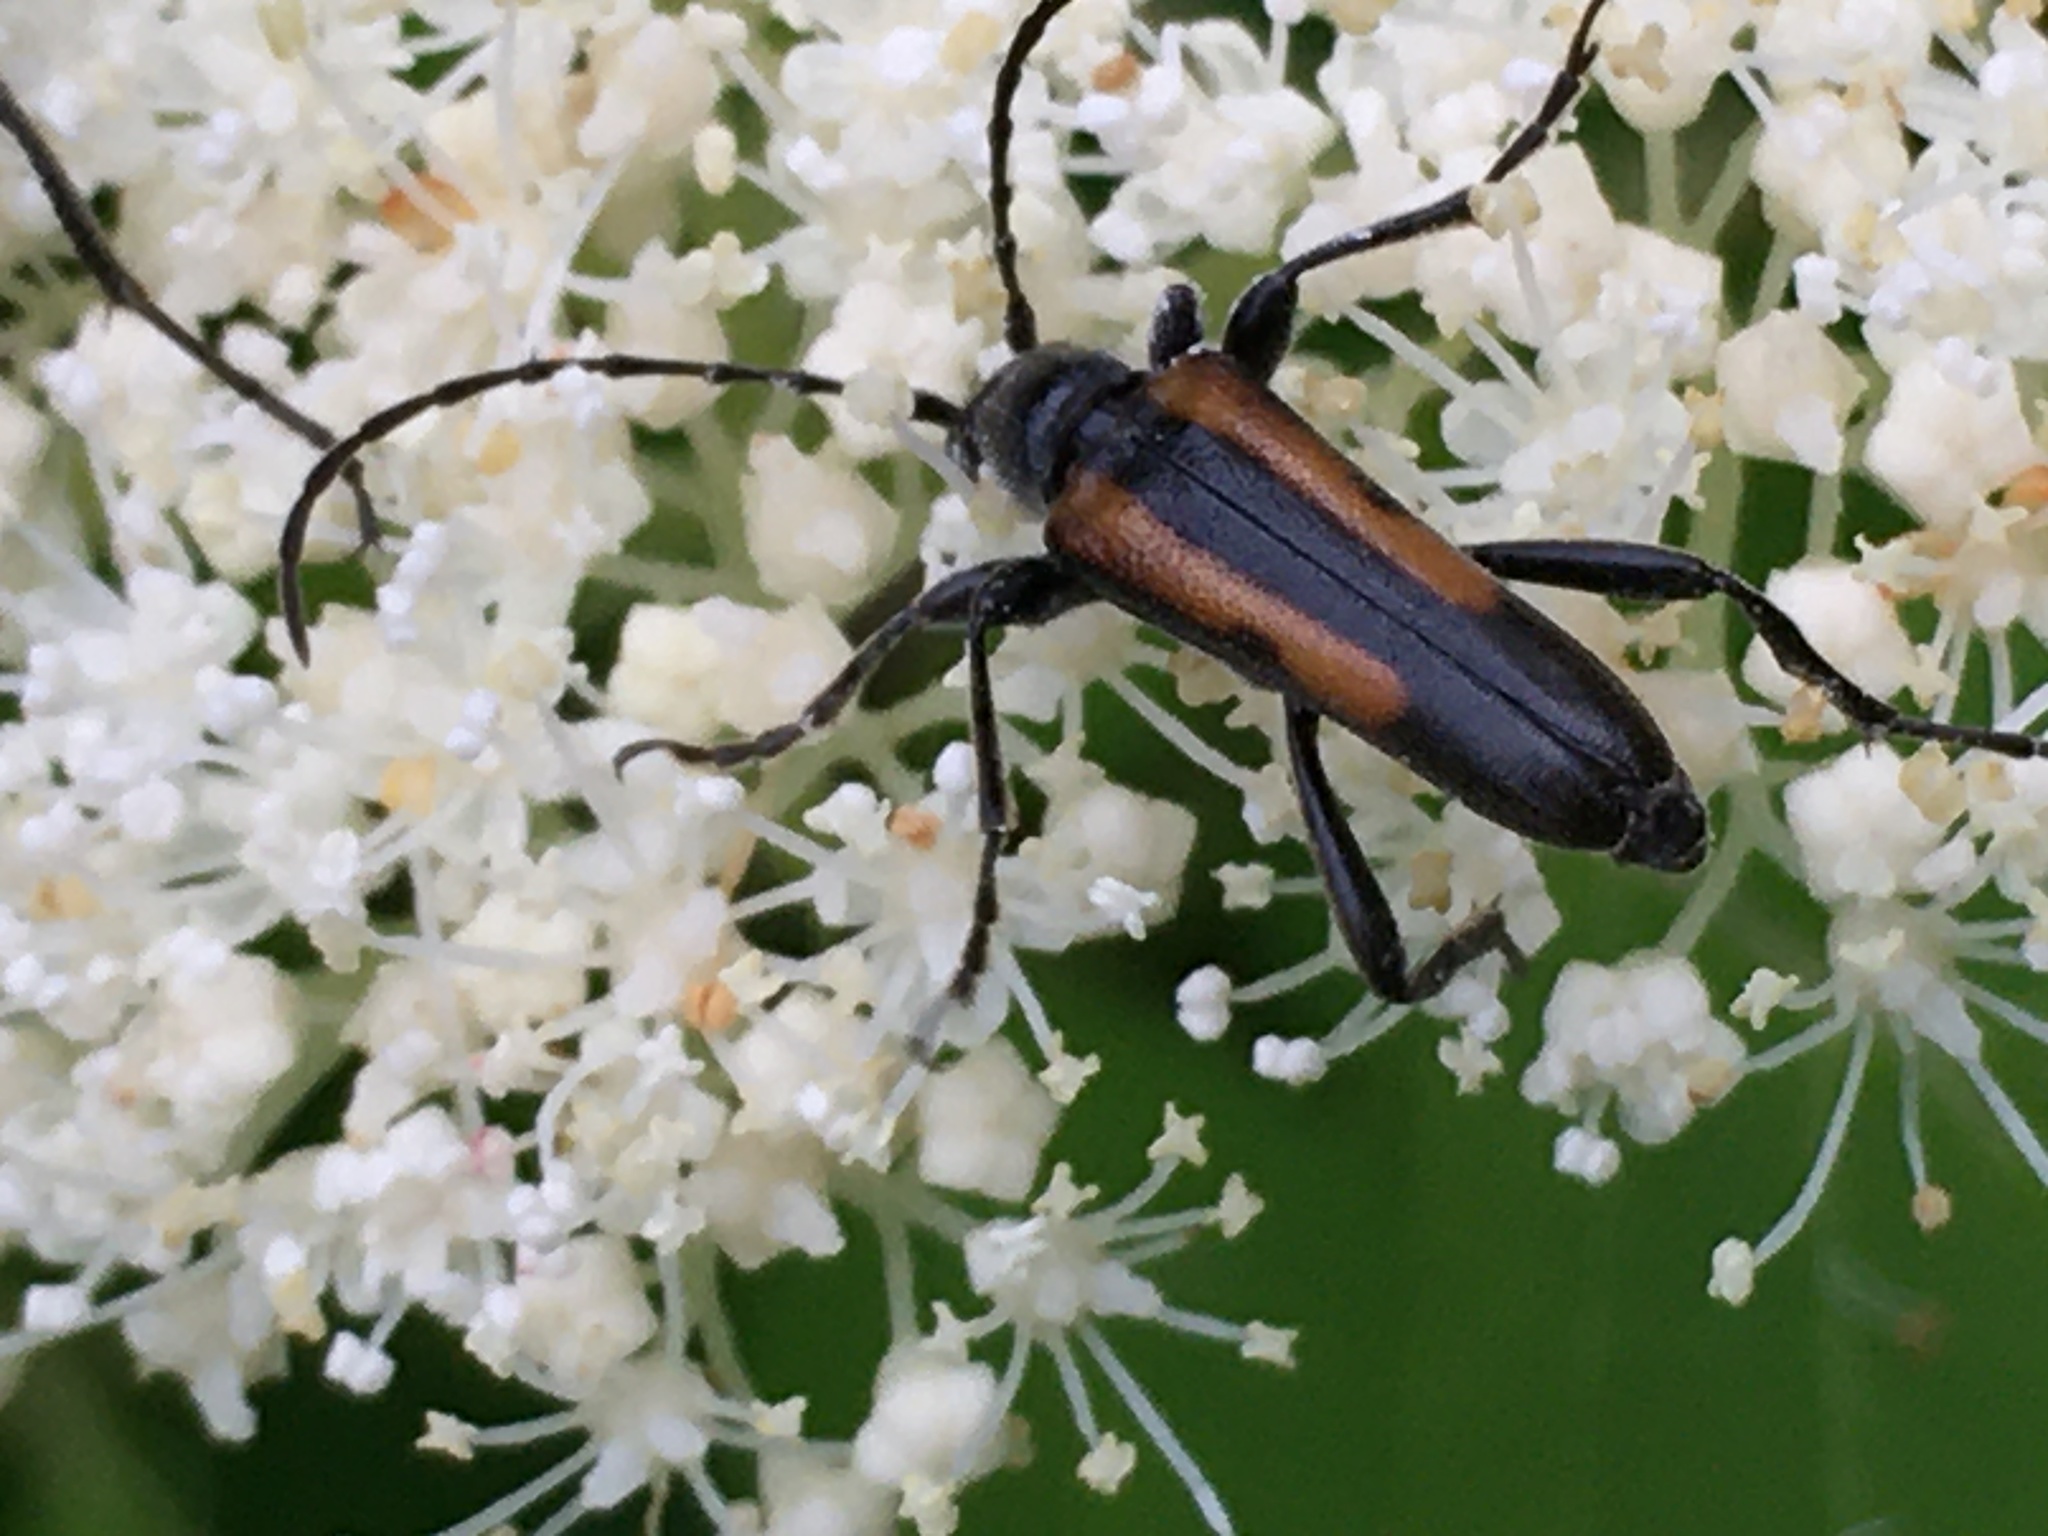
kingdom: Animalia
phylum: Arthropoda
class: Insecta
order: Coleoptera
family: Cerambycidae
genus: Strangalepta
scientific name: Strangalepta abbreviata
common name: Strangalepta flower longhorn beetle
